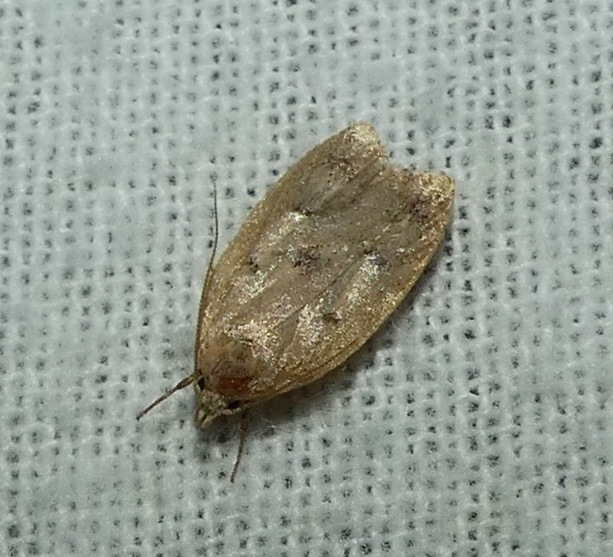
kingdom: Animalia
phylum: Arthropoda
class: Insecta
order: Lepidoptera
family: Peleopodidae
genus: Machimia
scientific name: Machimia tentoriferella
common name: Gold-striped leaftier moth
